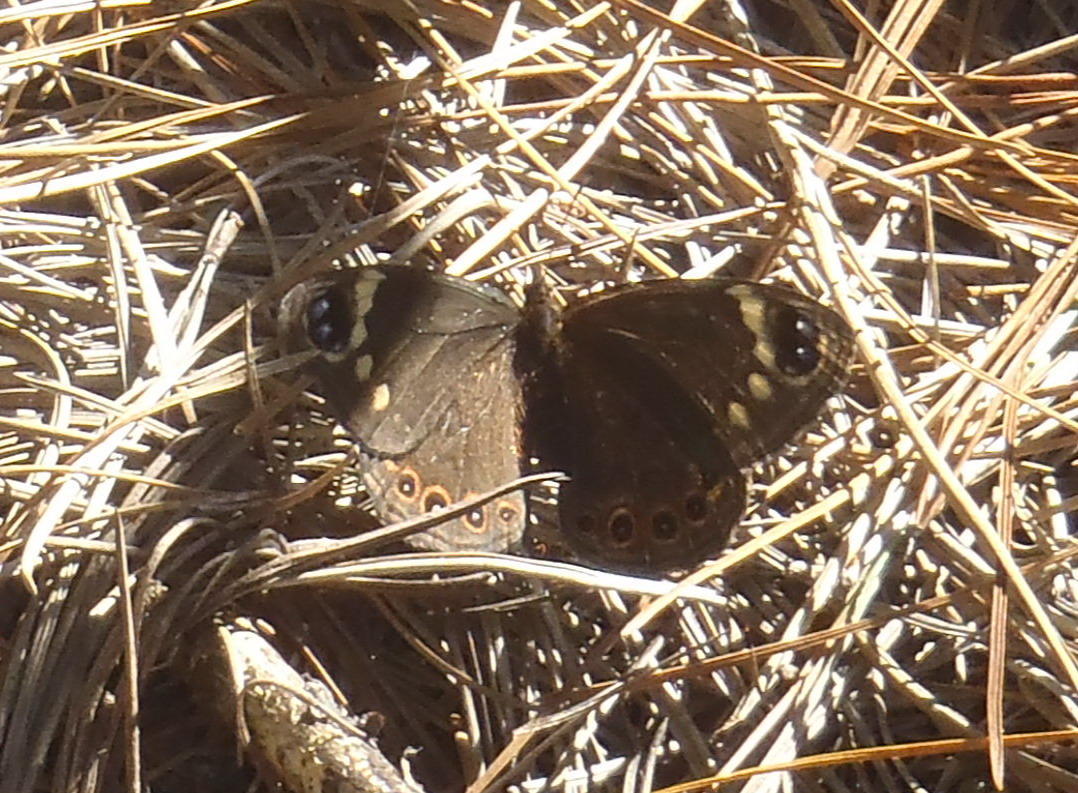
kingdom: Animalia
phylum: Arthropoda
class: Insecta
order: Lepidoptera
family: Nymphalidae
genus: Dira
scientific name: Dira clytus
